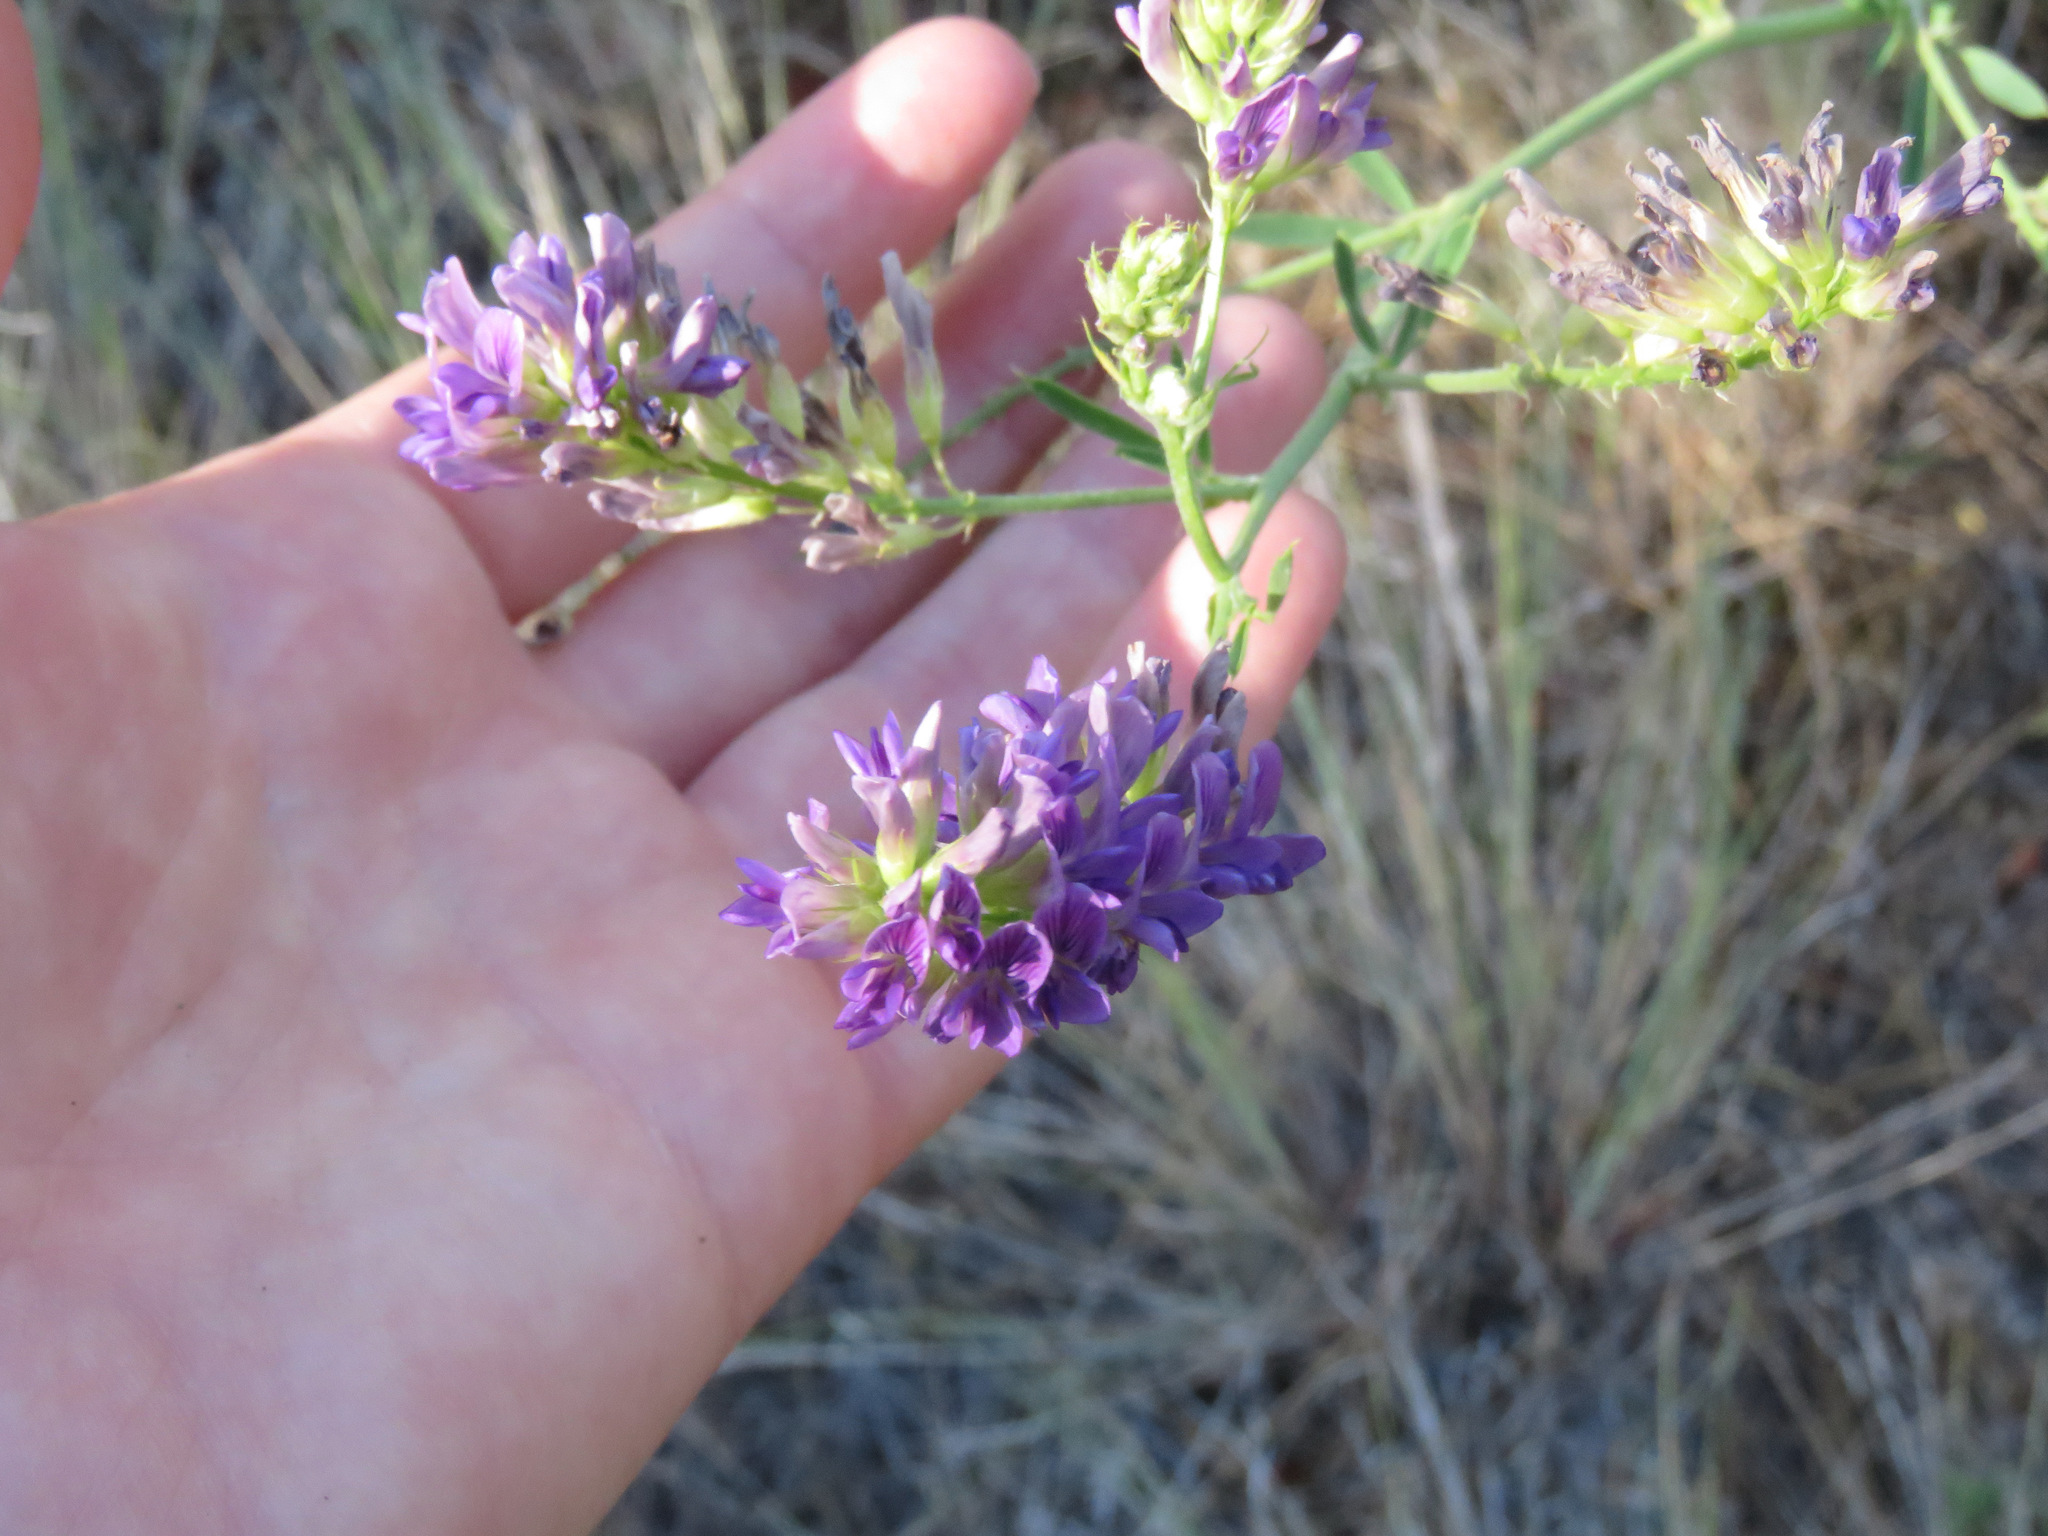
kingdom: Plantae
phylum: Tracheophyta
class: Magnoliopsida
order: Fabales
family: Fabaceae
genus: Medicago
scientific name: Medicago sativa
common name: Alfalfa
